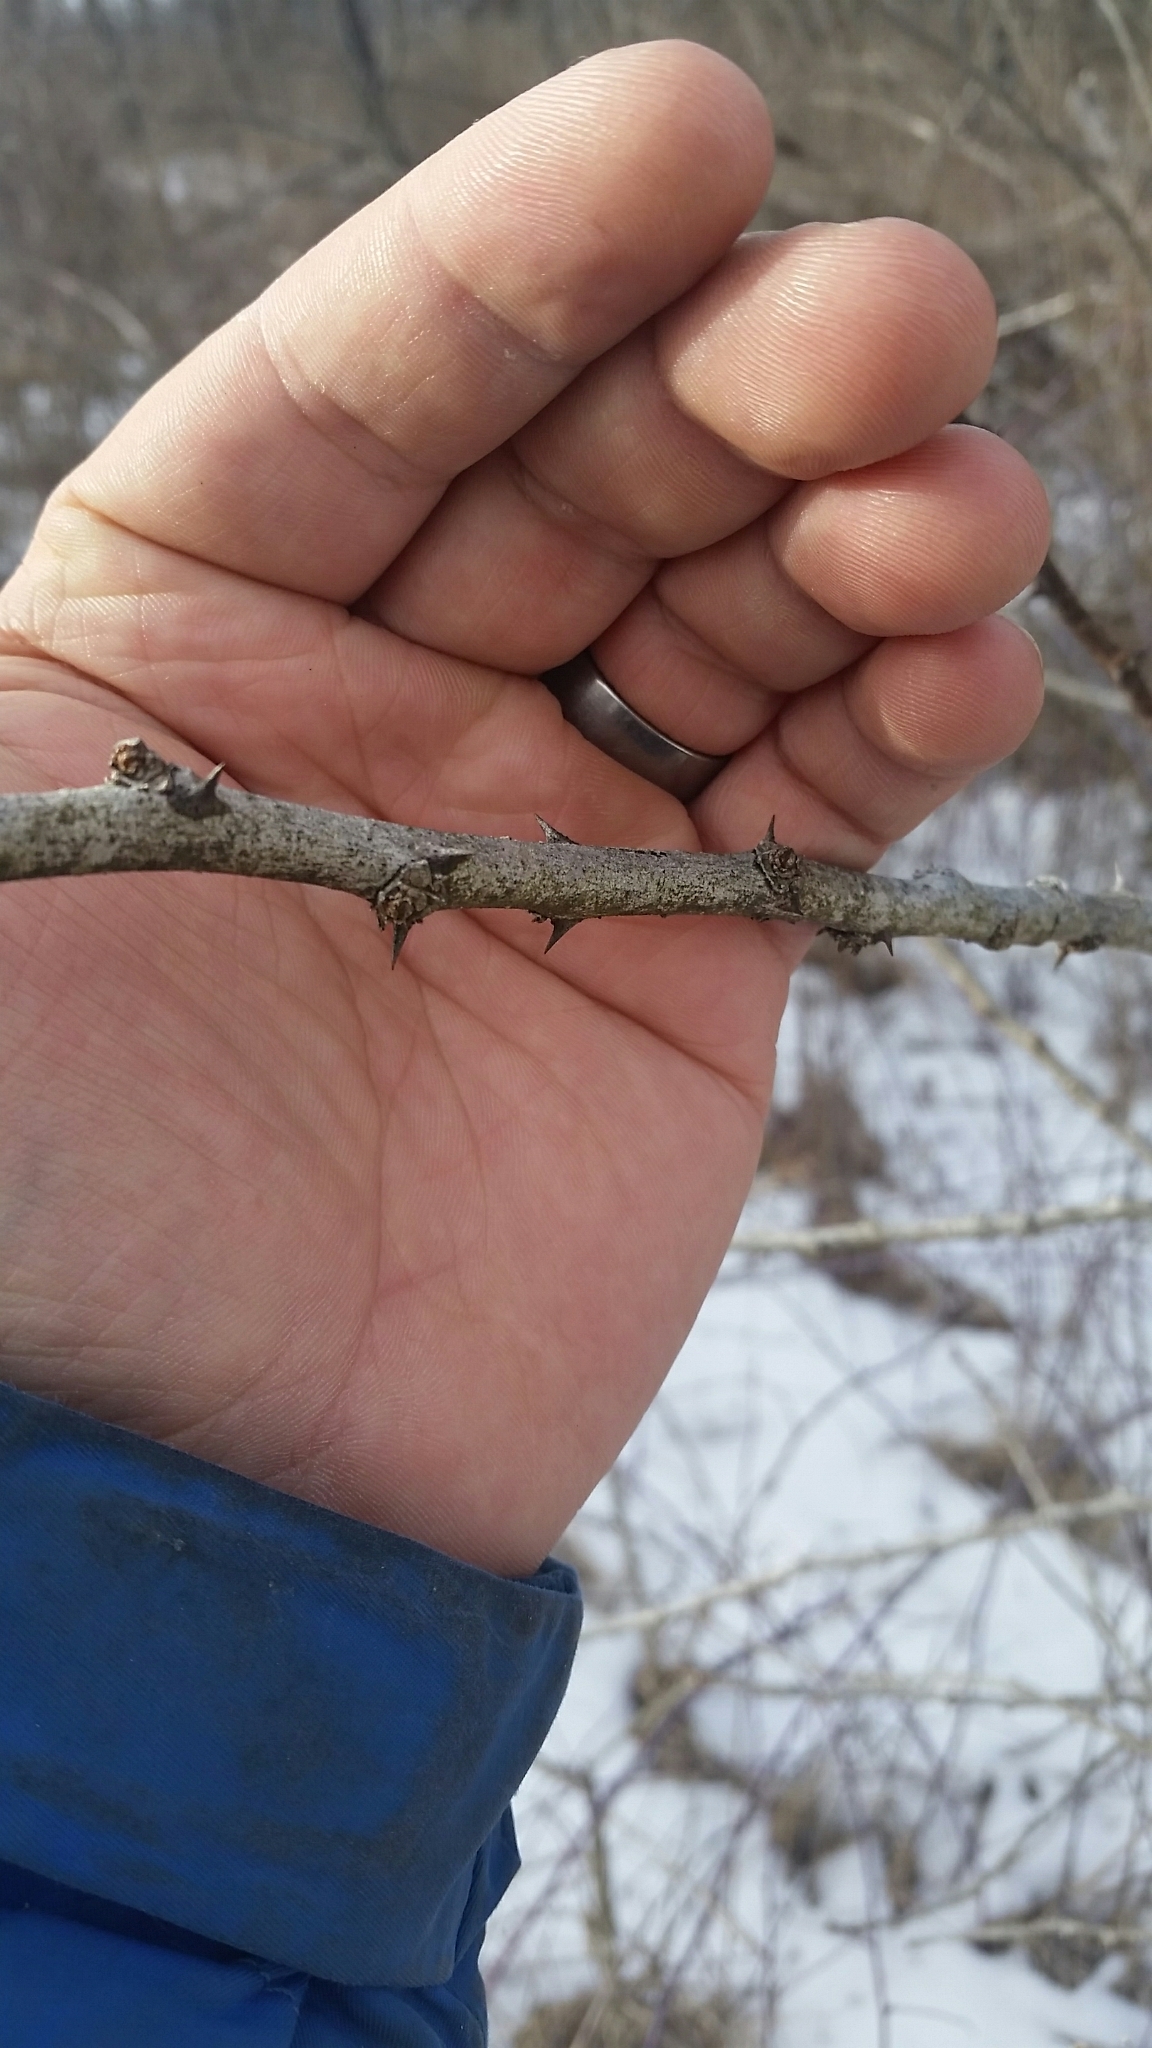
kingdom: Plantae
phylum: Tracheophyta
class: Magnoliopsida
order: Sapindales
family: Rutaceae
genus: Zanthoxylum
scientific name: Zanthoxylum americanum
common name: Northern prickly-ash
